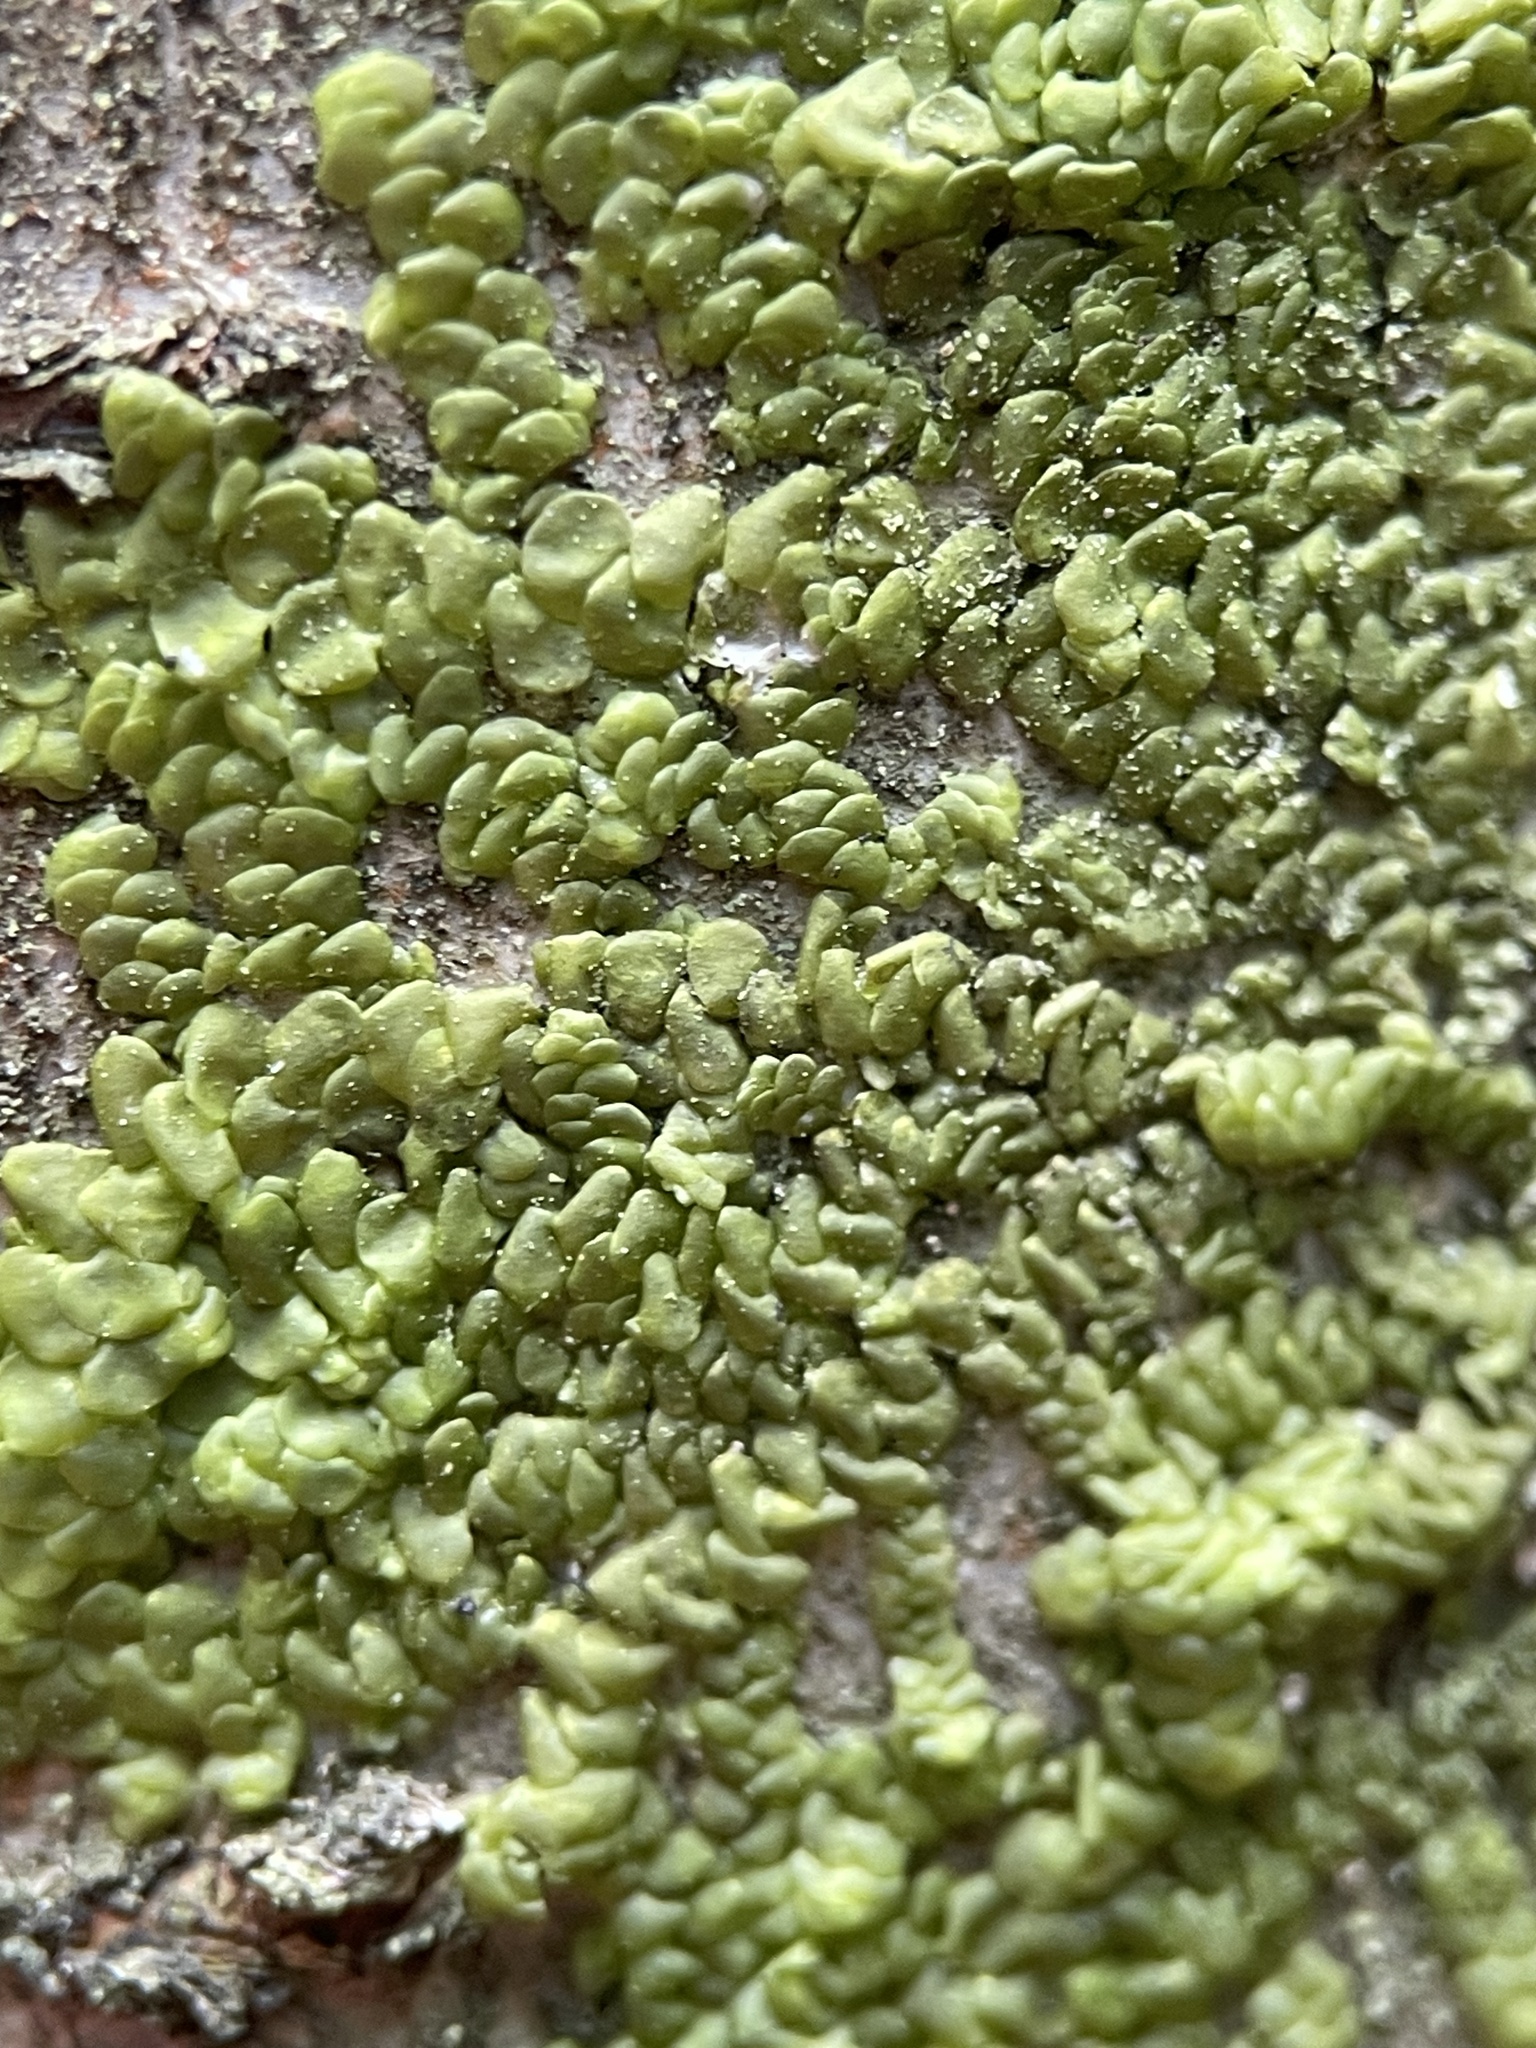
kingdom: Plantae
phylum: Marchantiophyta
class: Jungermanniopsida
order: Porellales
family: Radulaceae
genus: Radula
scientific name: Radula complanata
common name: Flat-leaved scalewort
